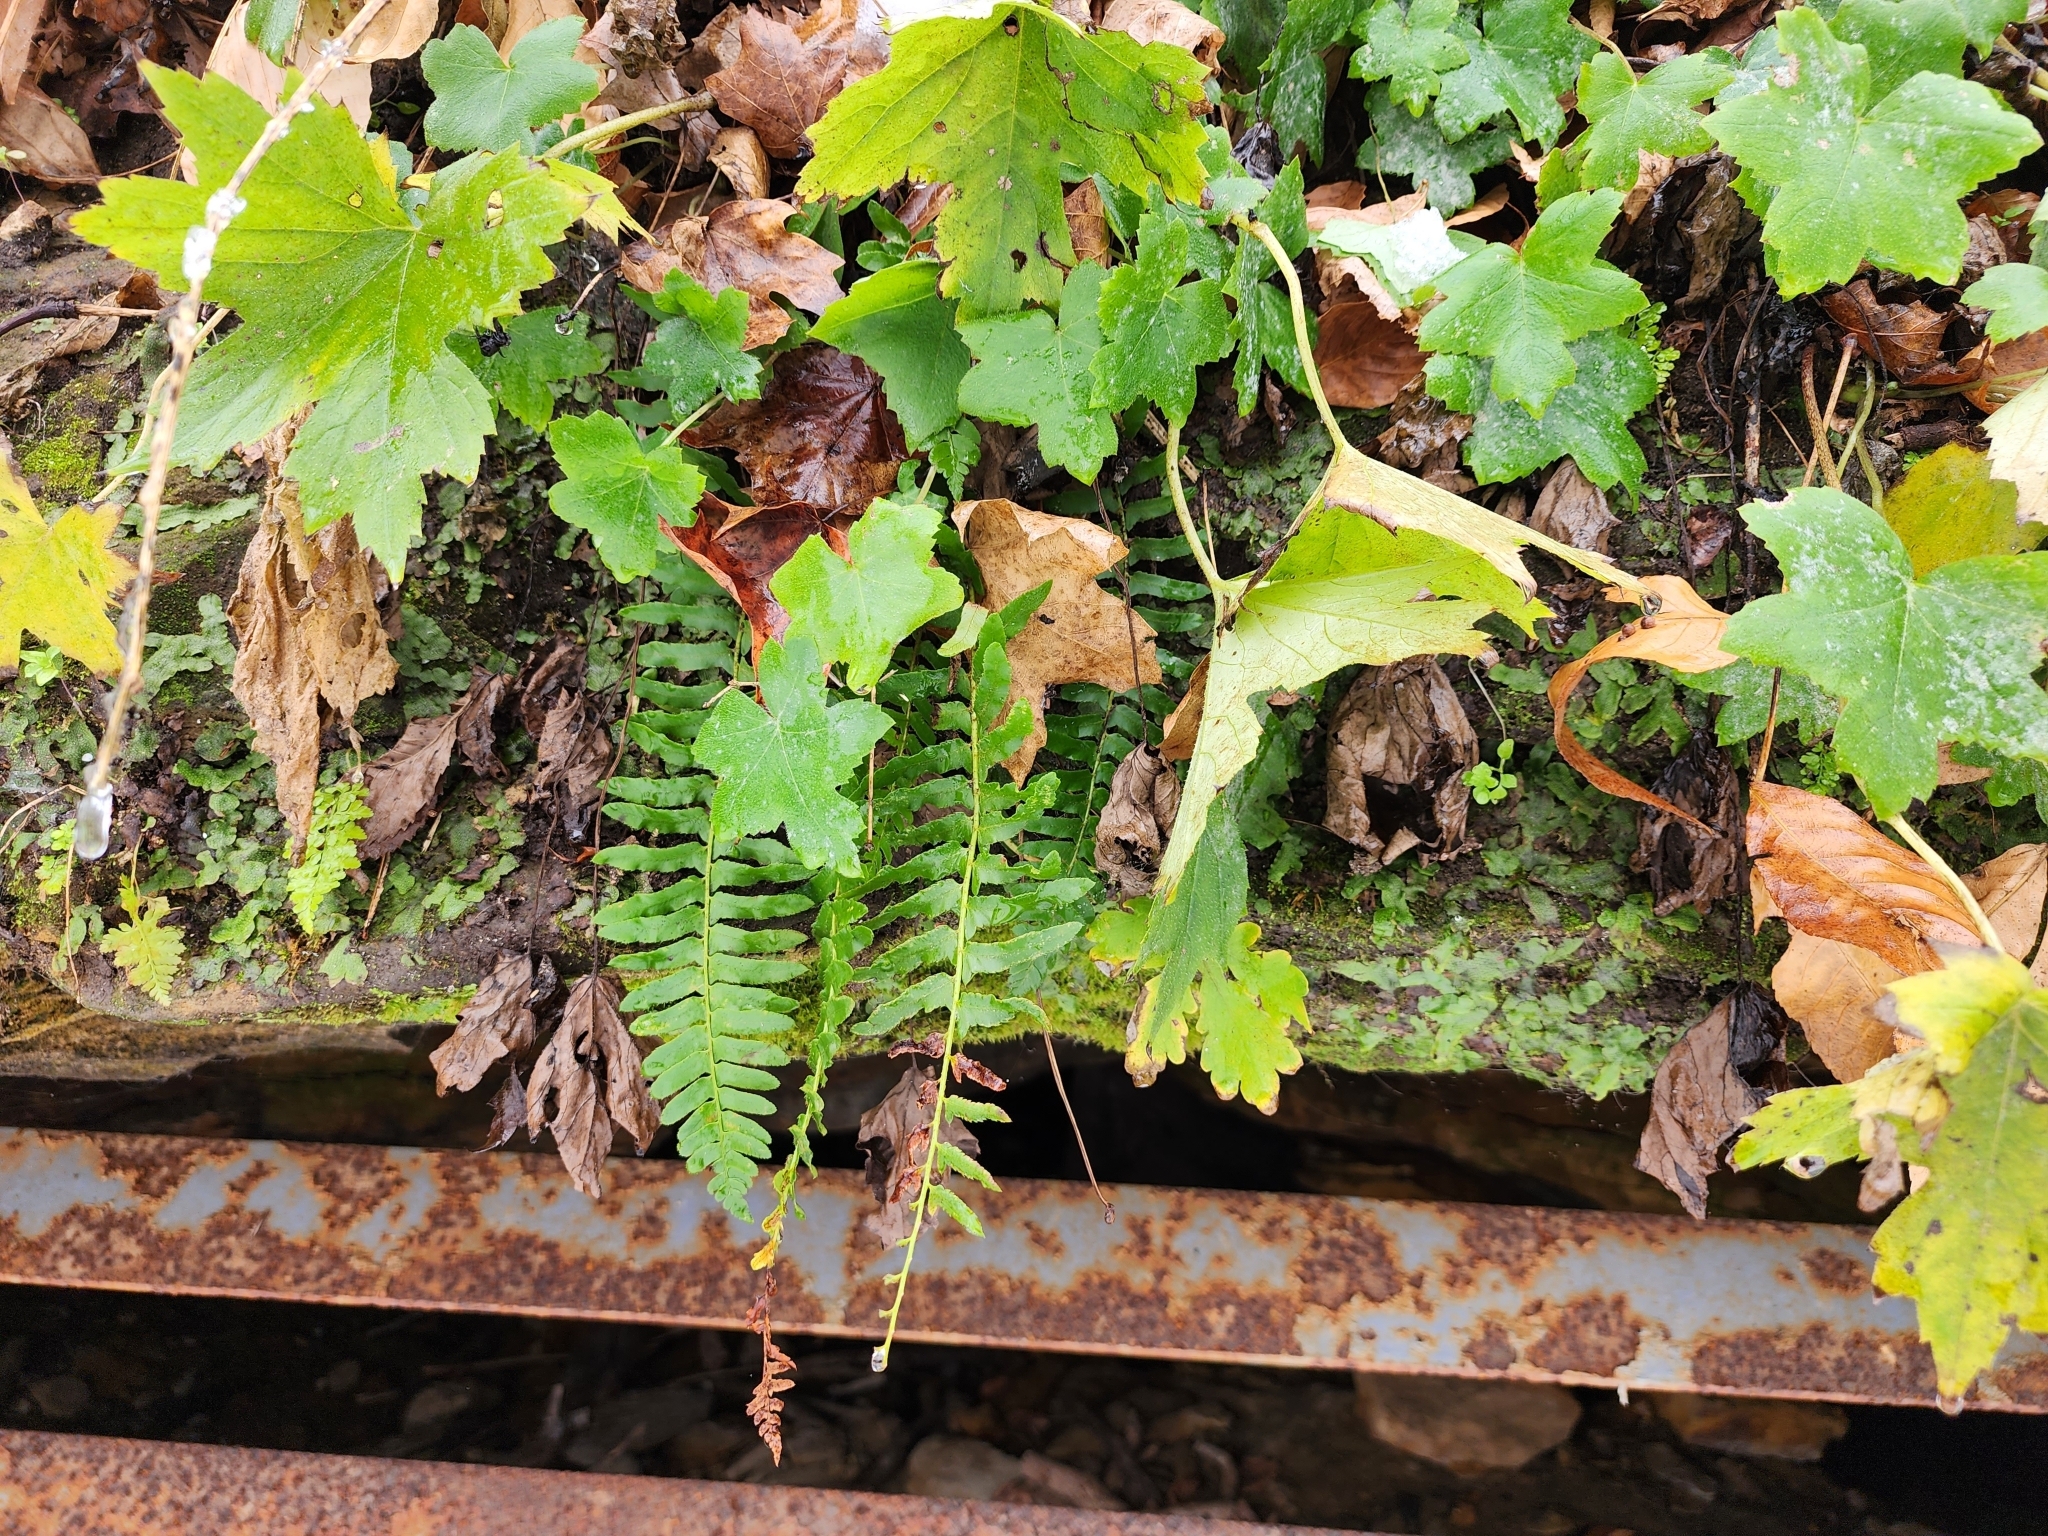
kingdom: Plantae
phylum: Tracheophyta
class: Polypodiopsida
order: Polypodiales
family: Dryopteridaceae
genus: Polystichum
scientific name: Polystichum acrostichoides
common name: Christmas fern
